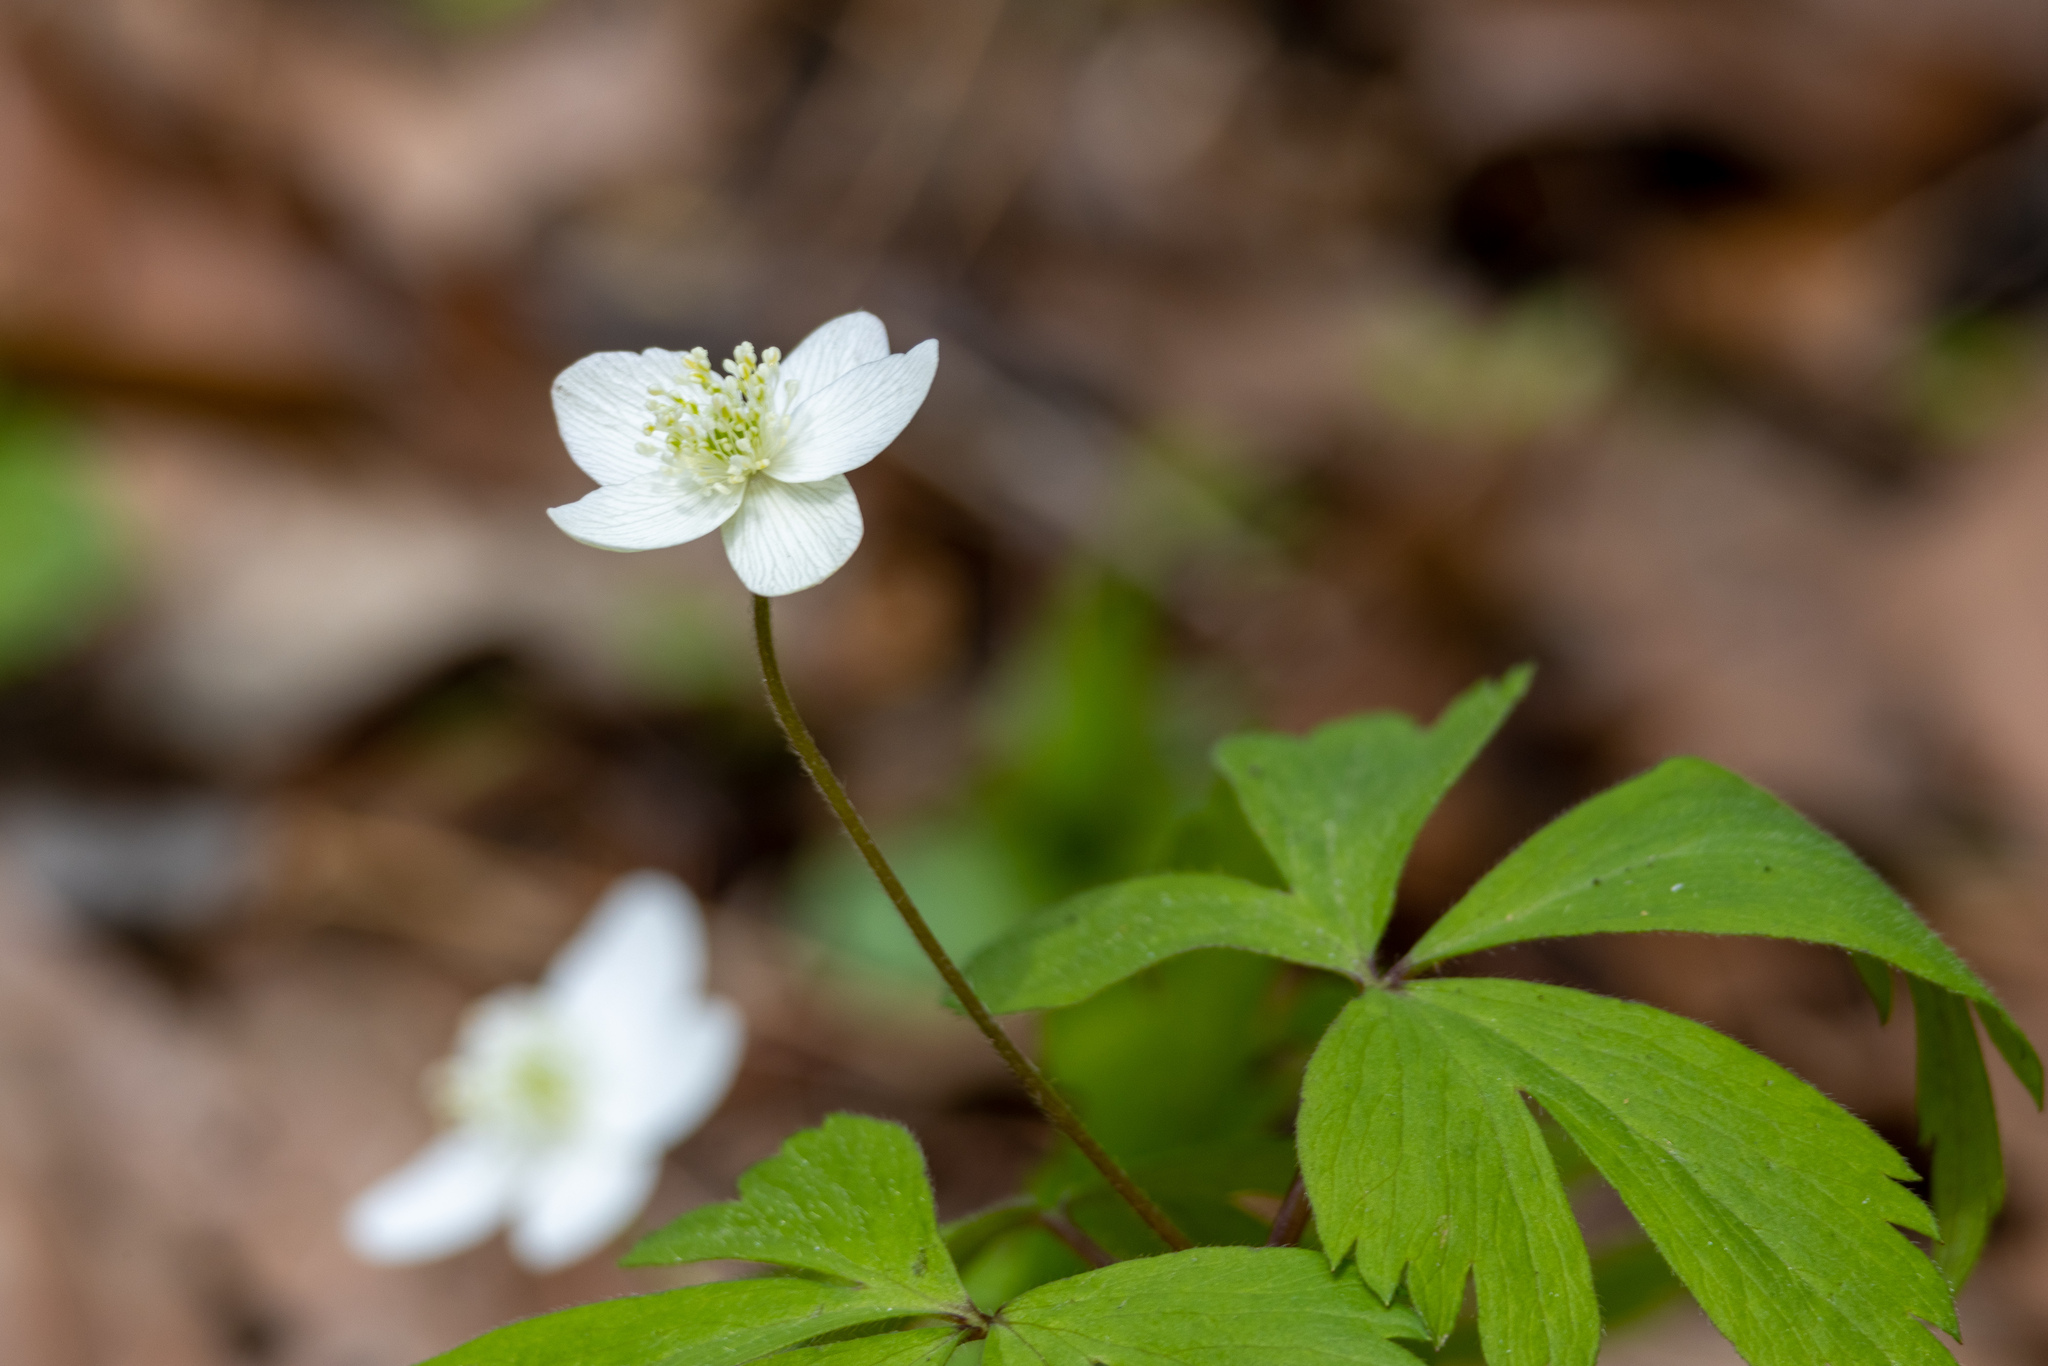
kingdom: Plantae
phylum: Tracheophyta
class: Magnoliopsida
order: Ranunculales
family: Ranunculaceae
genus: Anemone
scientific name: Anemone quinquefolia
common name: Wood anemone
